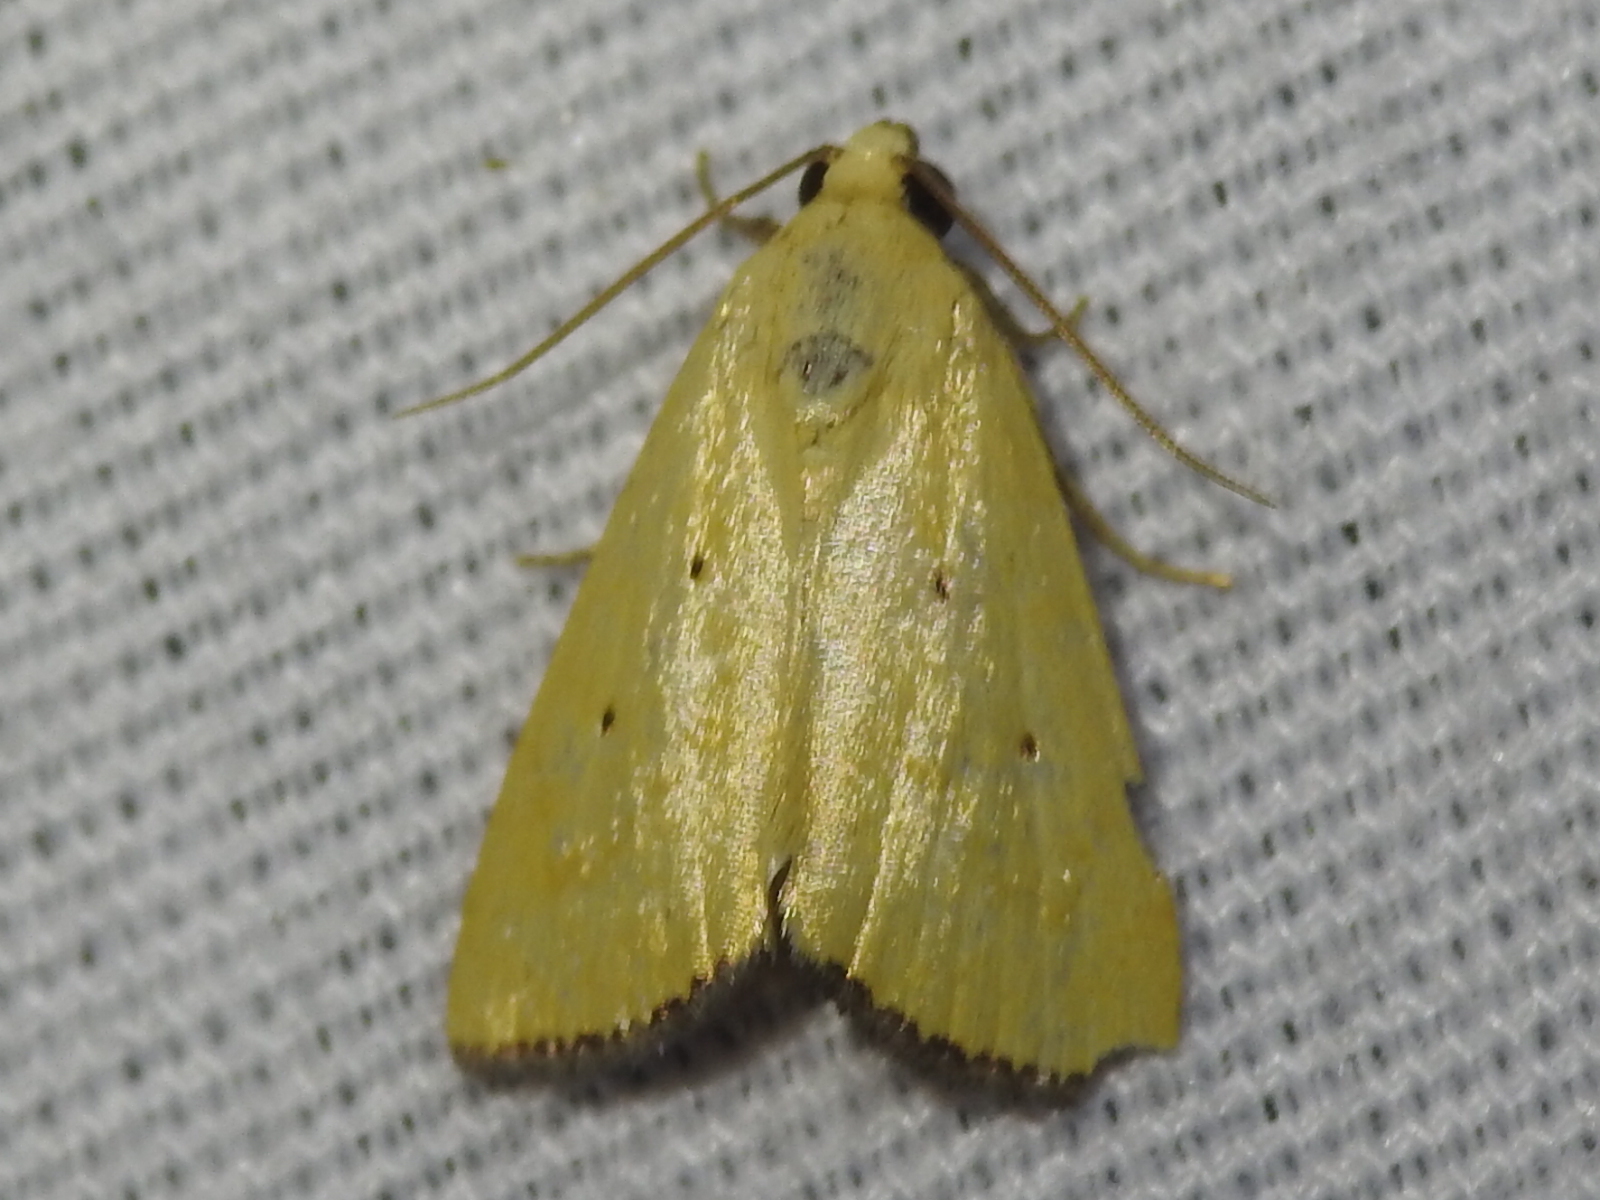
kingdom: Animalia
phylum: Arthropoda
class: Insecta
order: Lepidoptera
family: Noctuidae
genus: Marimatha
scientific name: Marimatha nigrofimbria
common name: Black-bordered lemon moth
